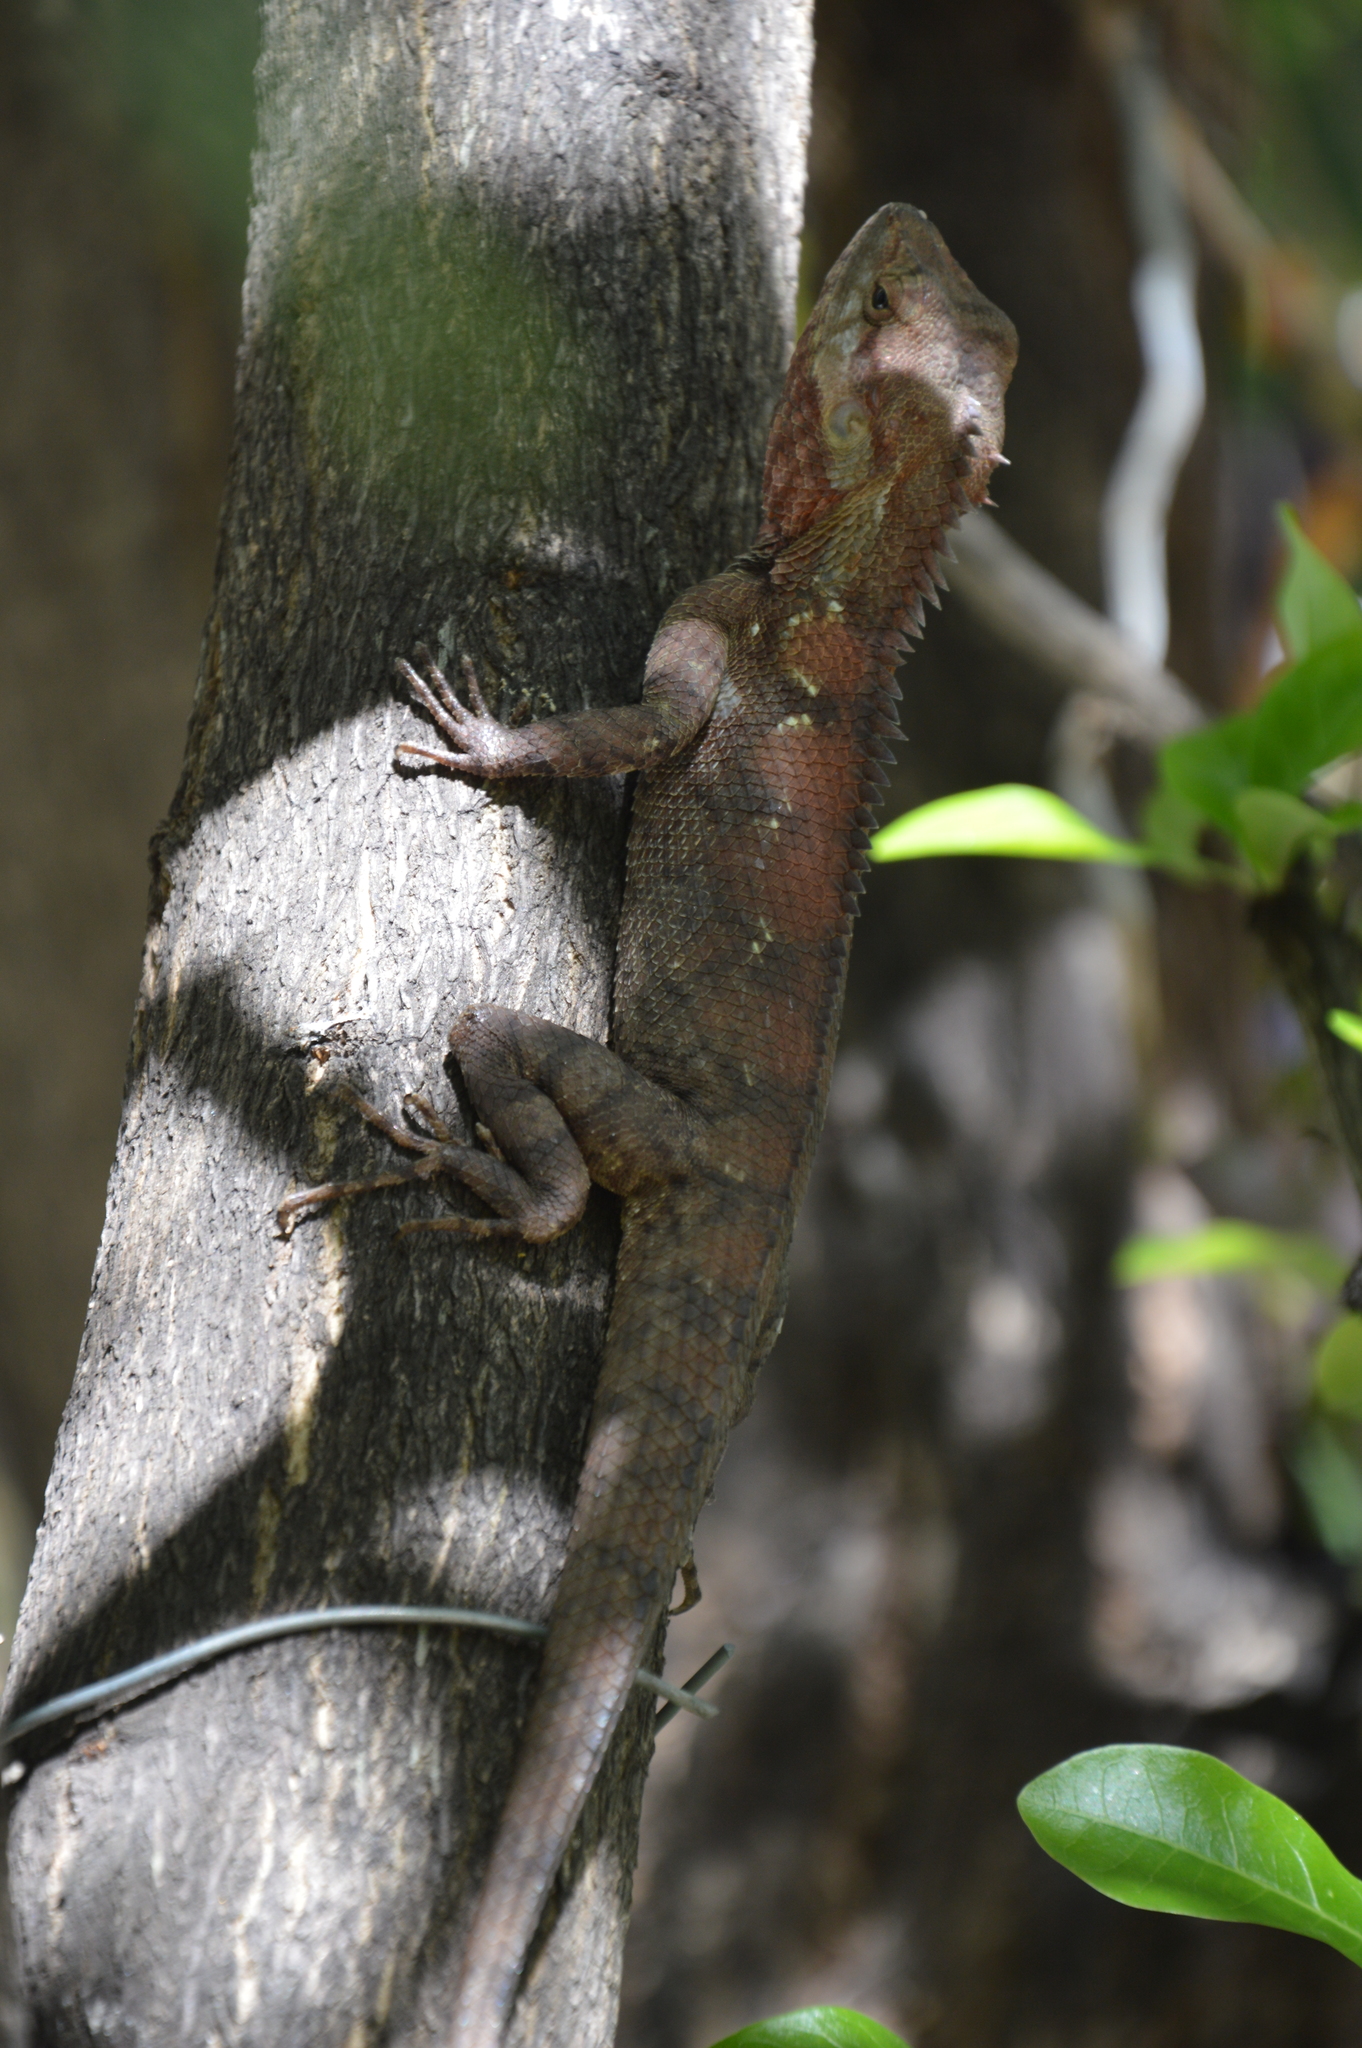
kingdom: Animalia
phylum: Chordata
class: Squamata
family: Agamidae
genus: Calotes
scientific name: Calotes goetzi
